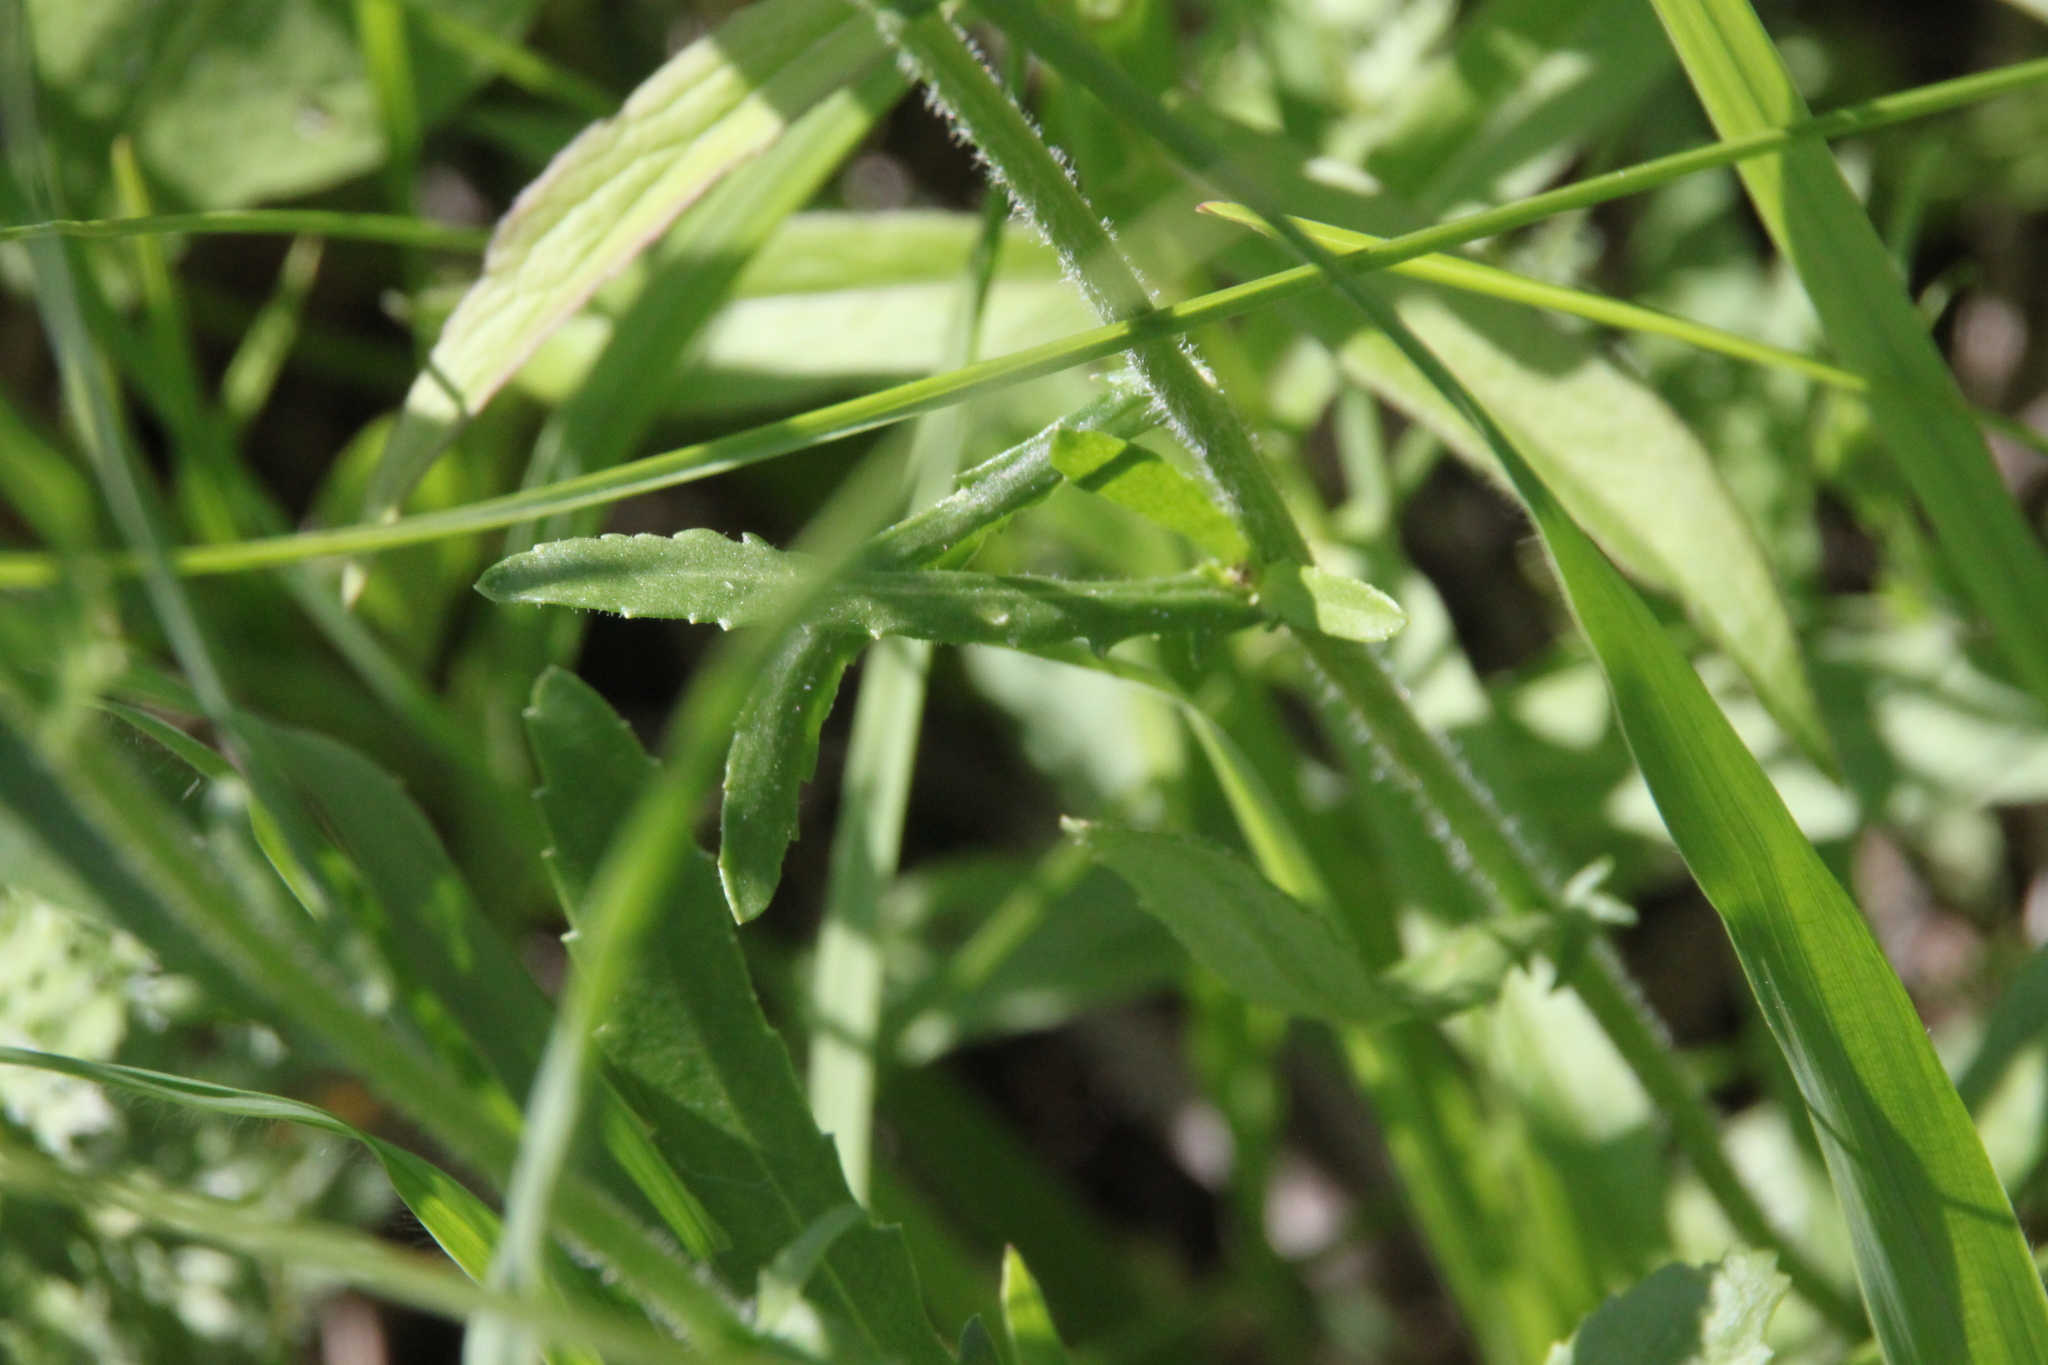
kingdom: Plantae
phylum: Tracheophyta
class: Magnoliopsida
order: Asterales
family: Asteraceae
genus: Leucanthemum
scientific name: Leucanthemum vulgare
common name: Oxeye daisy
